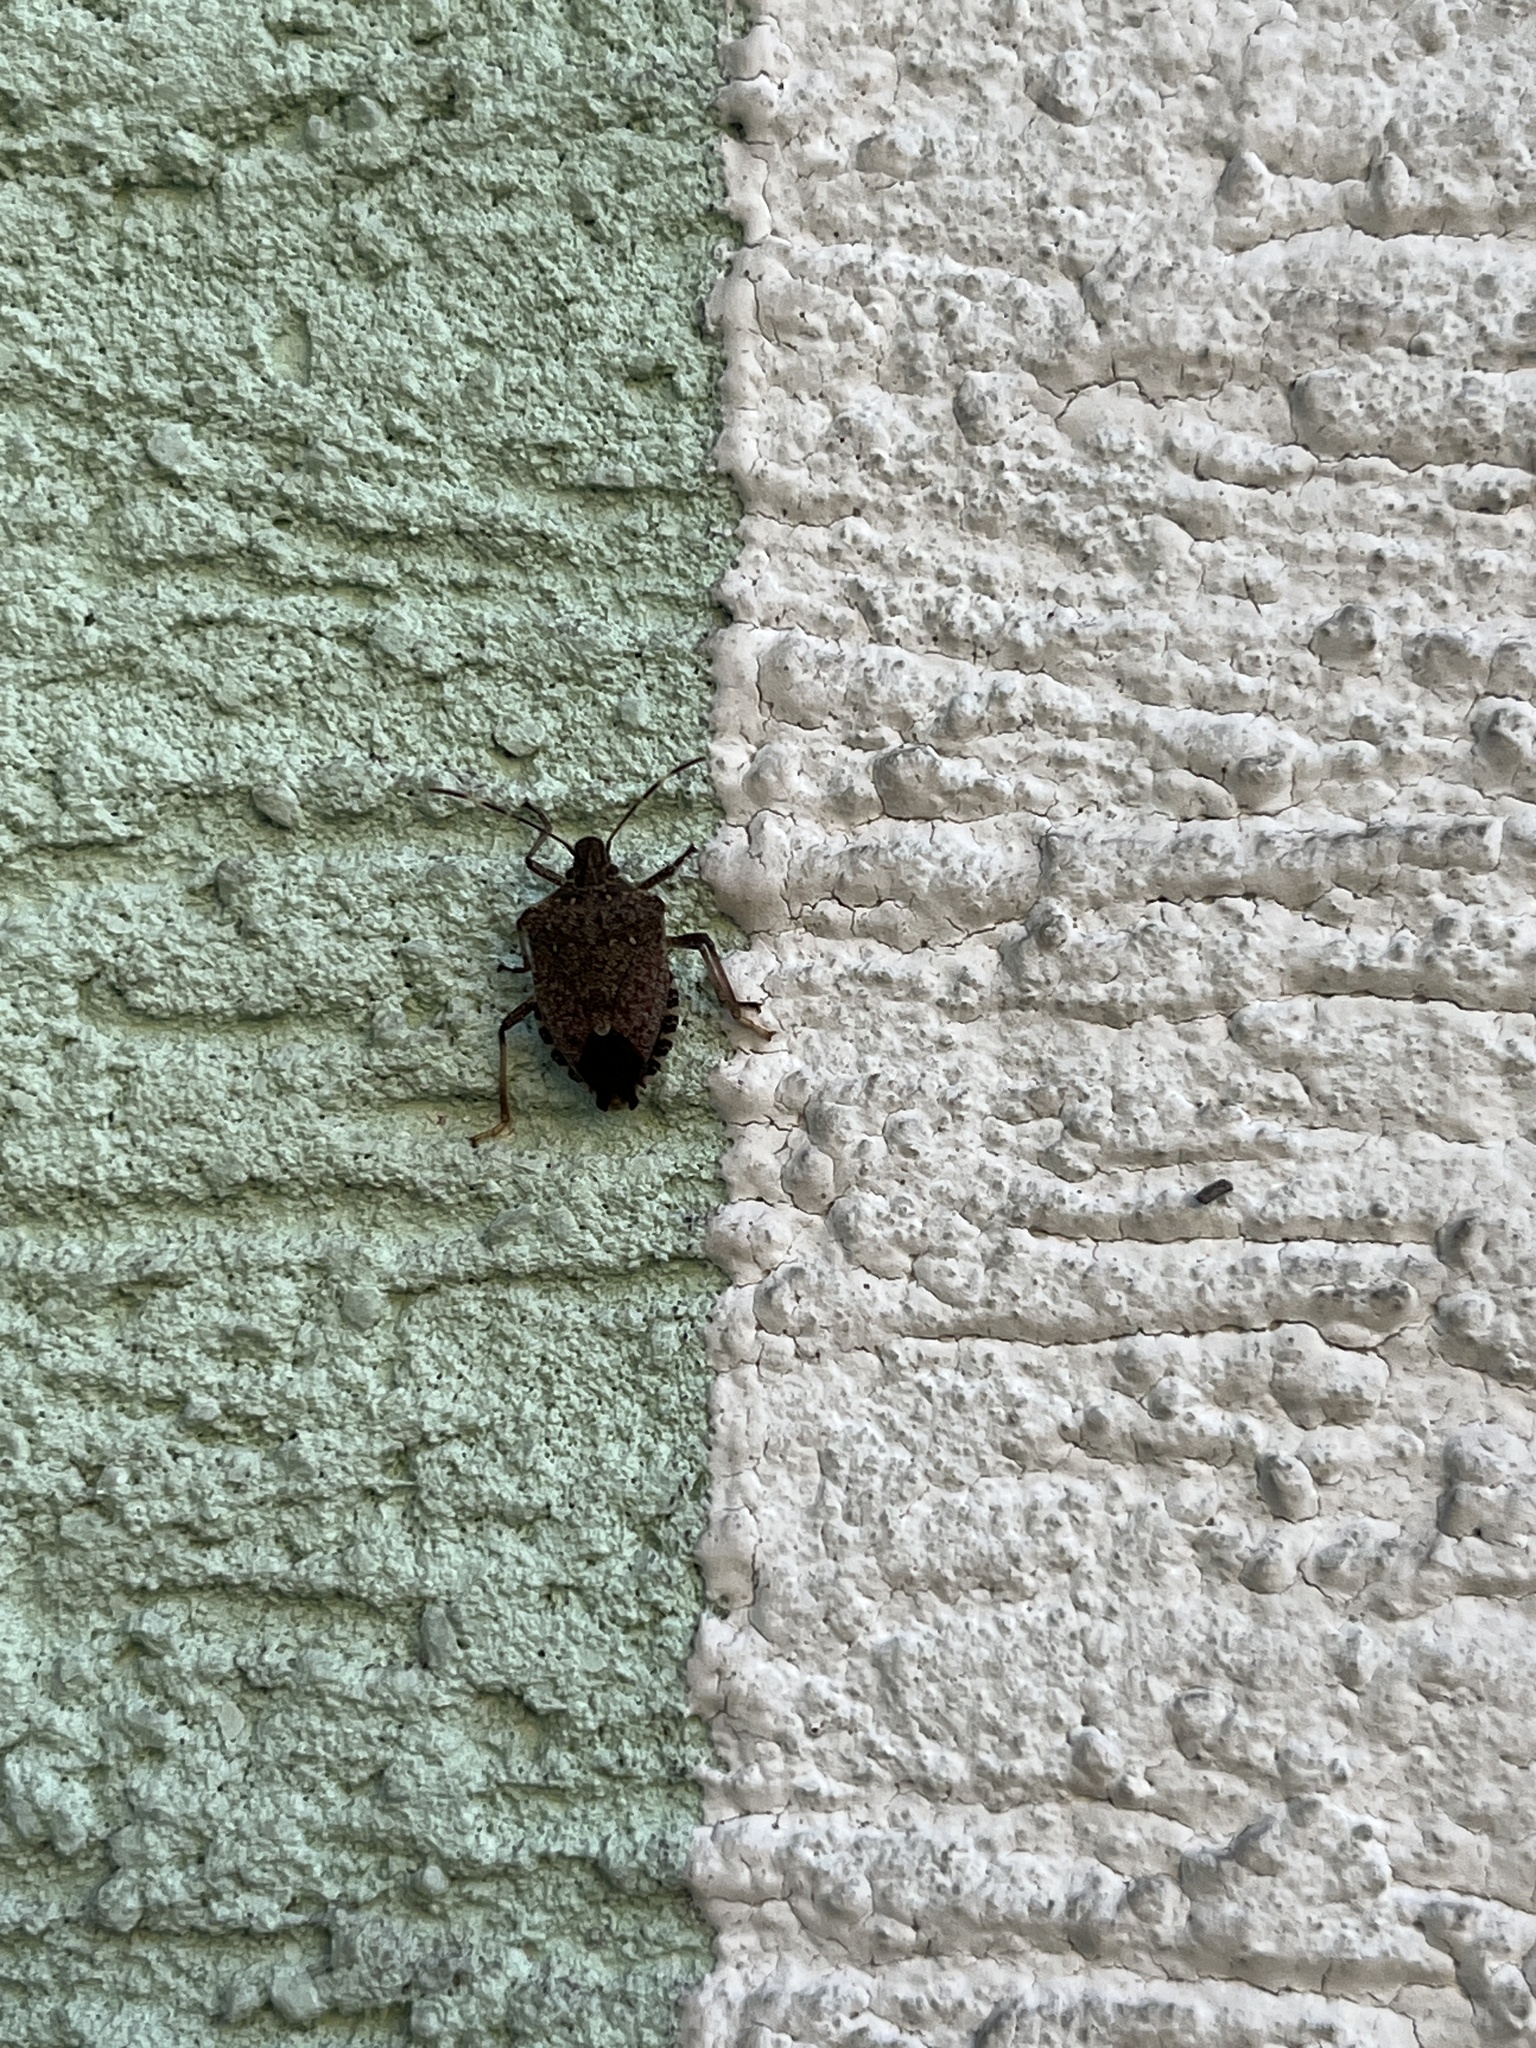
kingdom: Animalia
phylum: Arthropoda
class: Insecta
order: Hemiptera
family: Pentatomidae
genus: Halyomorpha
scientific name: Halyomorpha halys
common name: Brown marmorated stink bug
